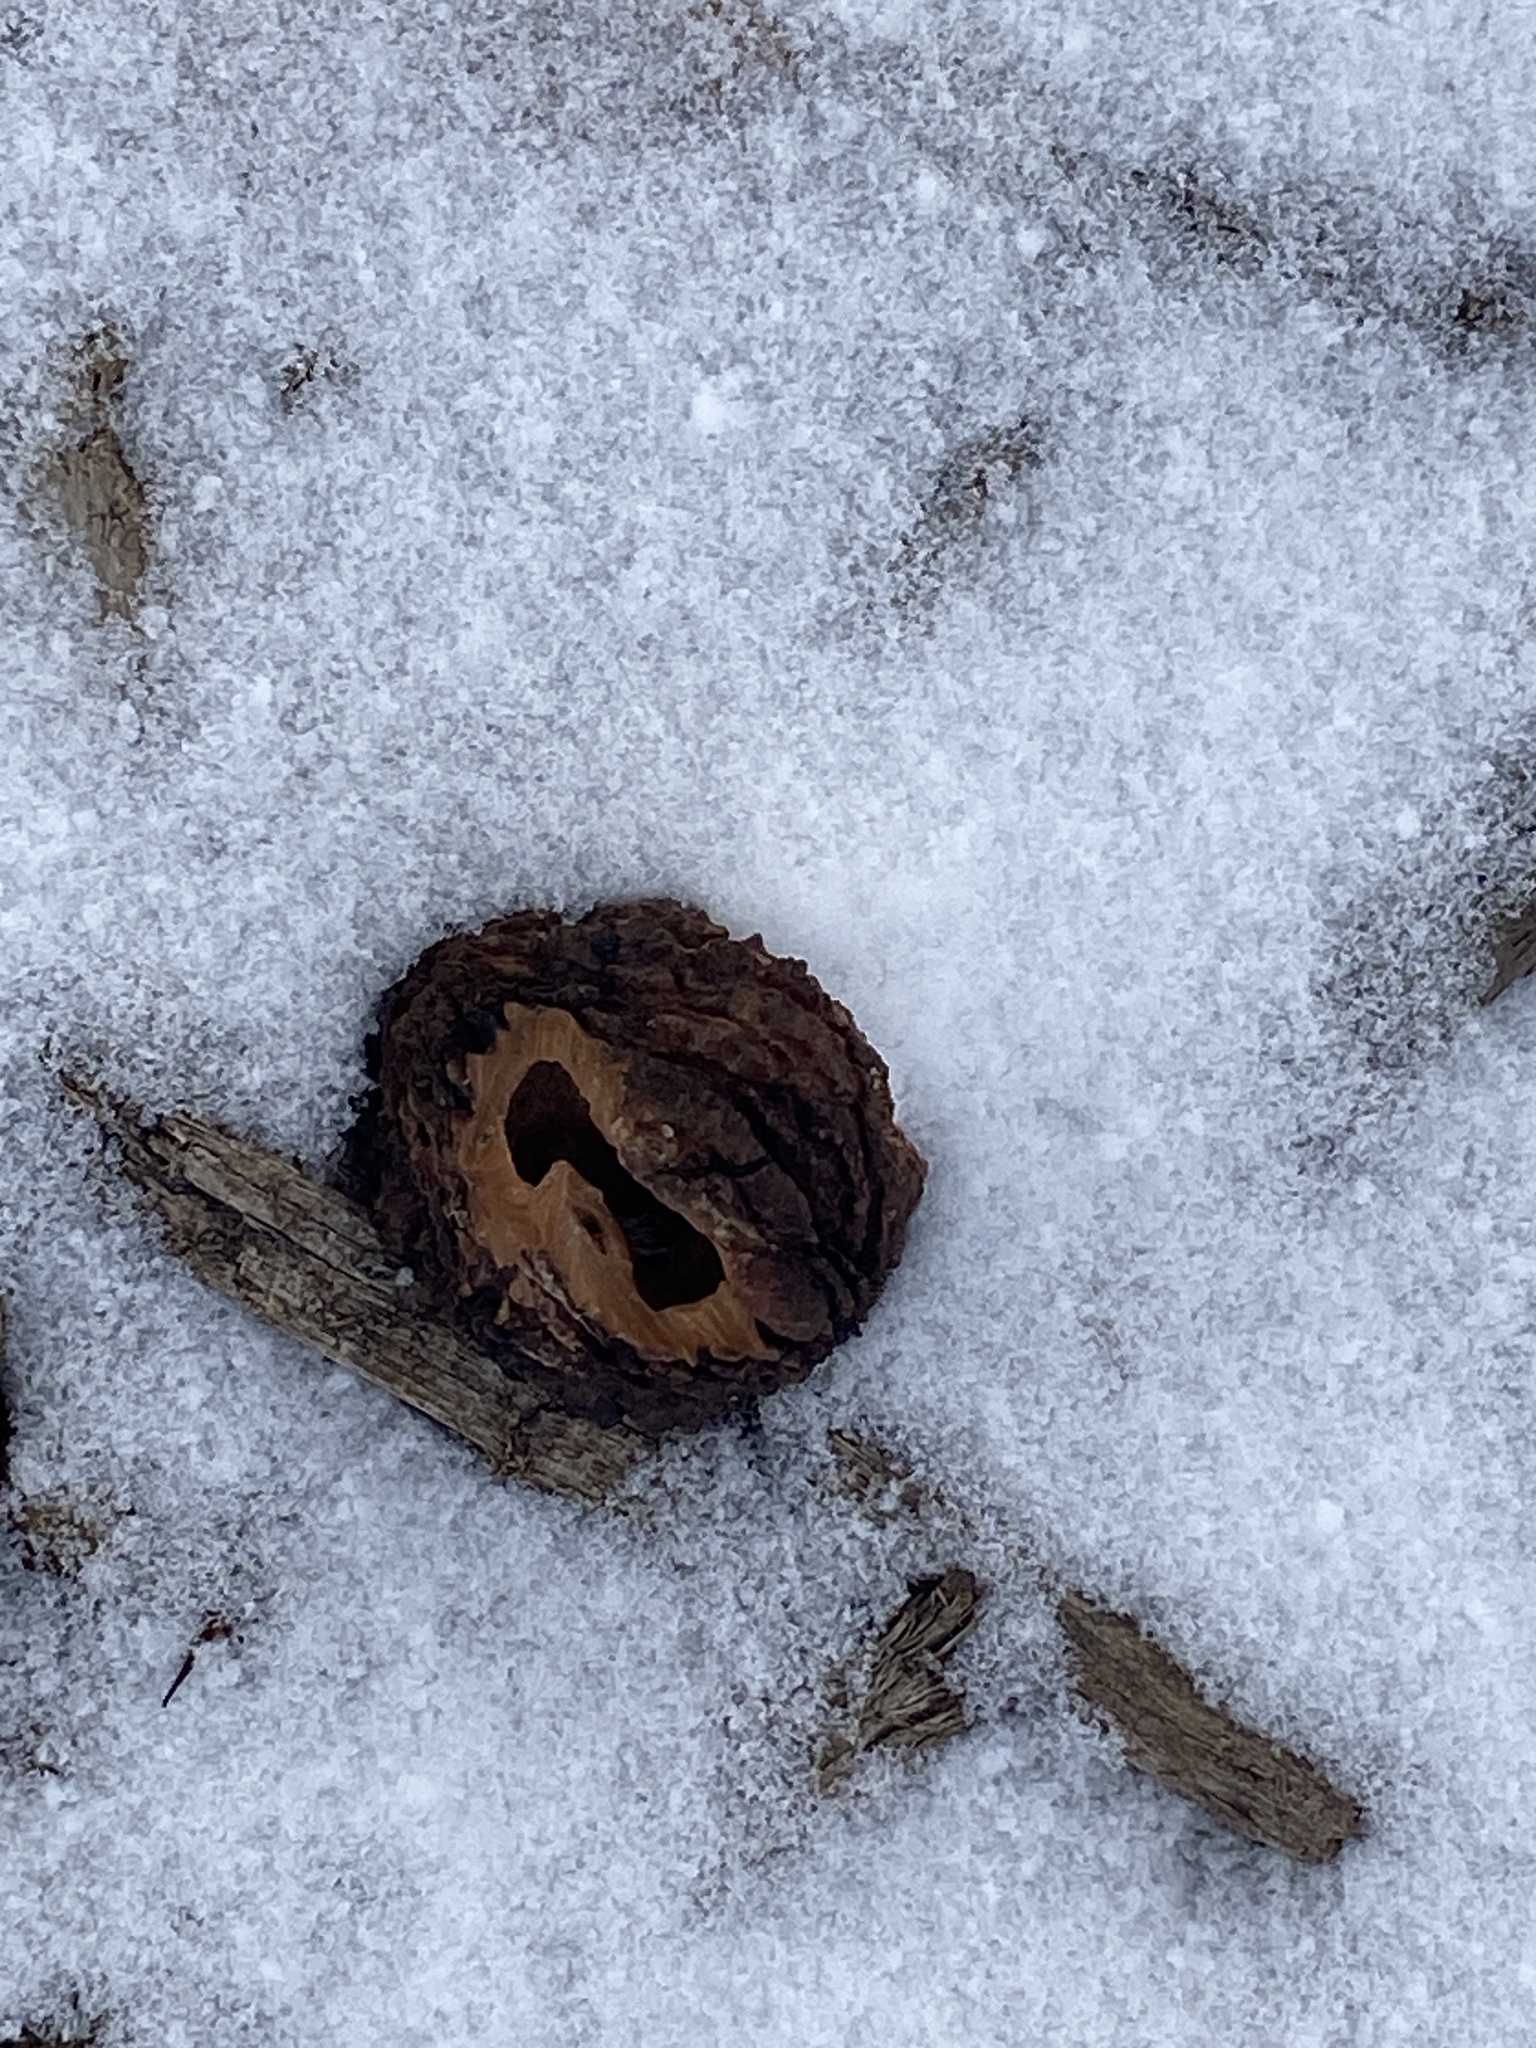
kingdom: Plantae
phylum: Tracheophyta
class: Magnoliopsida
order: Fagales
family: Juglandaceae
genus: Juglans
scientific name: Juglans nigra
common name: Black walnut
